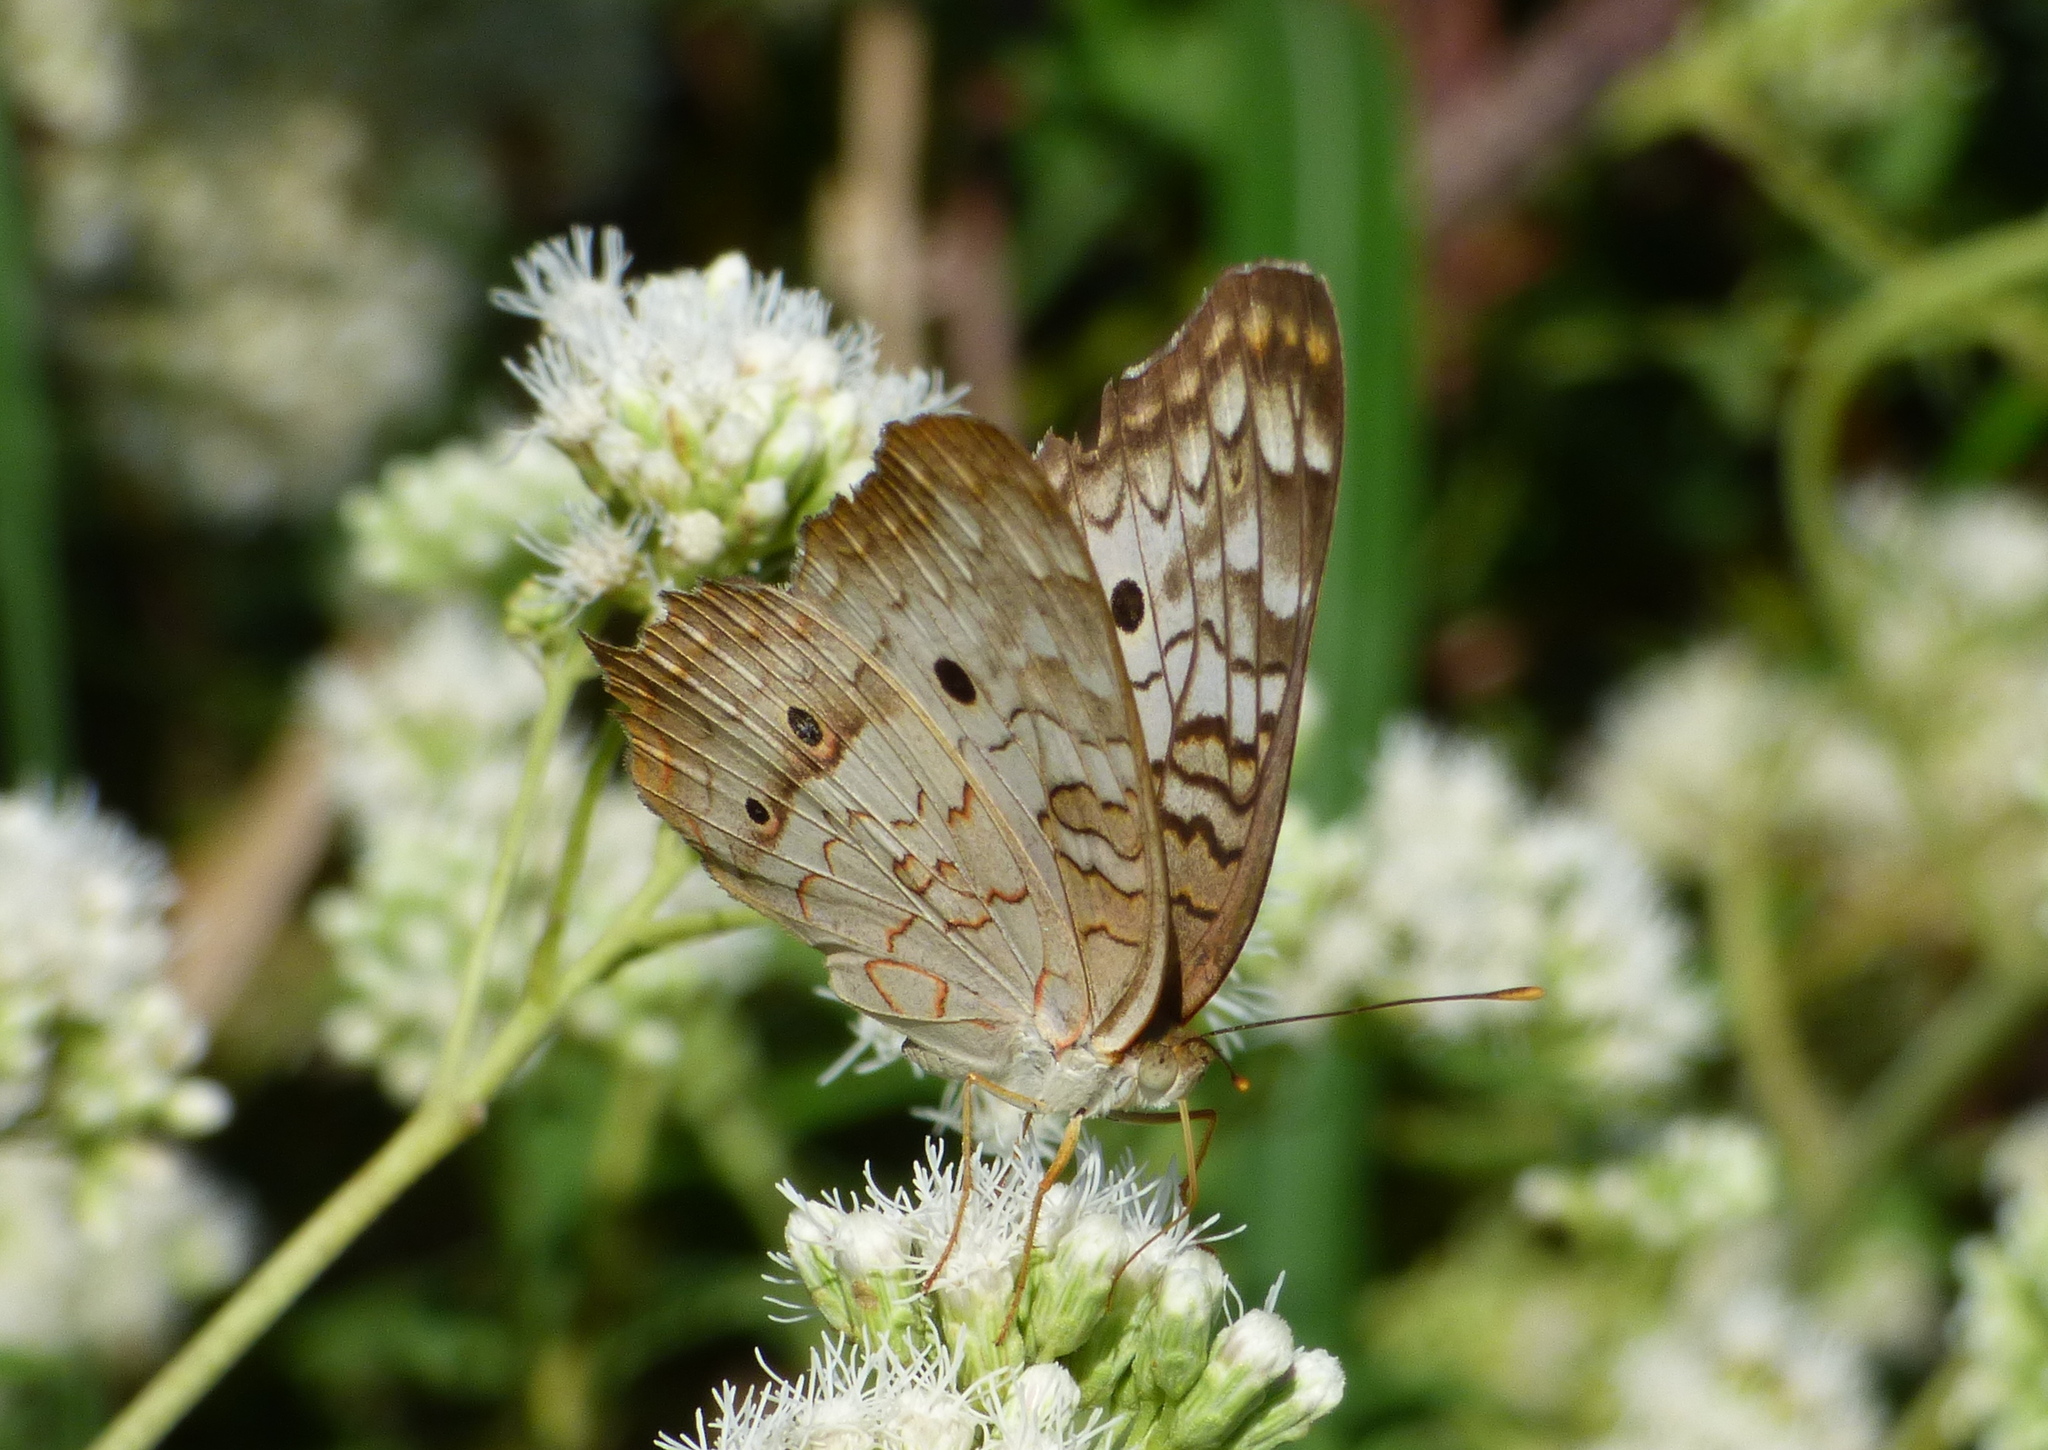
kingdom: Animalia
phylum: Arthropoda
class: Insecta
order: Lepidoptera
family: Nymphalidae
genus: Anartia
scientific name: Anartia jatrophae
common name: White peacock
